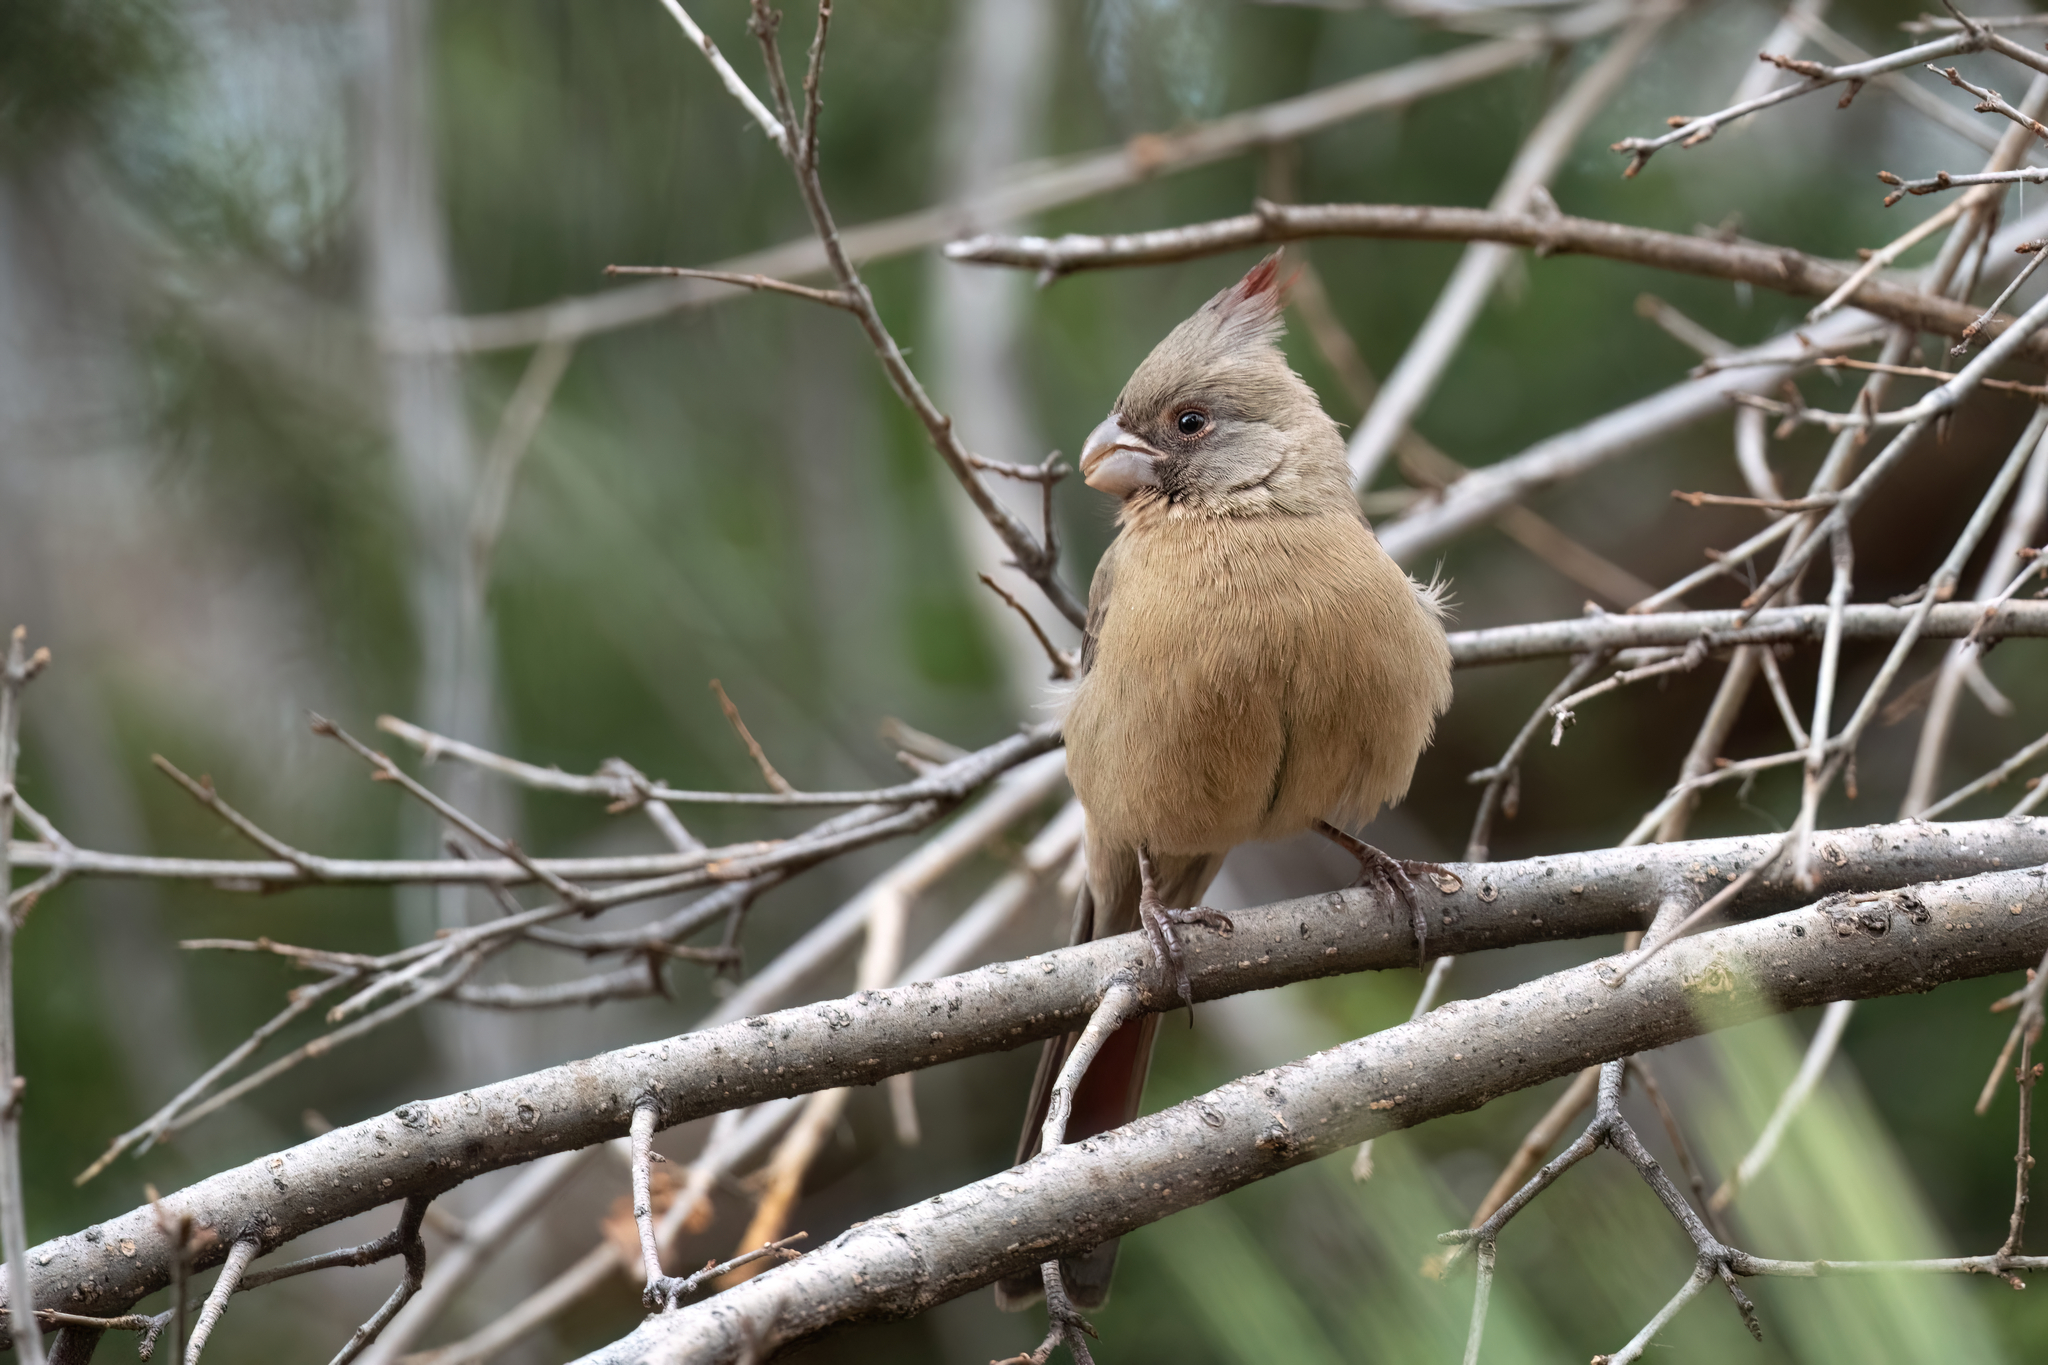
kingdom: Animalia
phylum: Chordata
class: Aves
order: Passeriformes
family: Cardinalidae
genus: Cardinalis
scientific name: Cardinalis sinuatus
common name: Pyrrhuloxia
